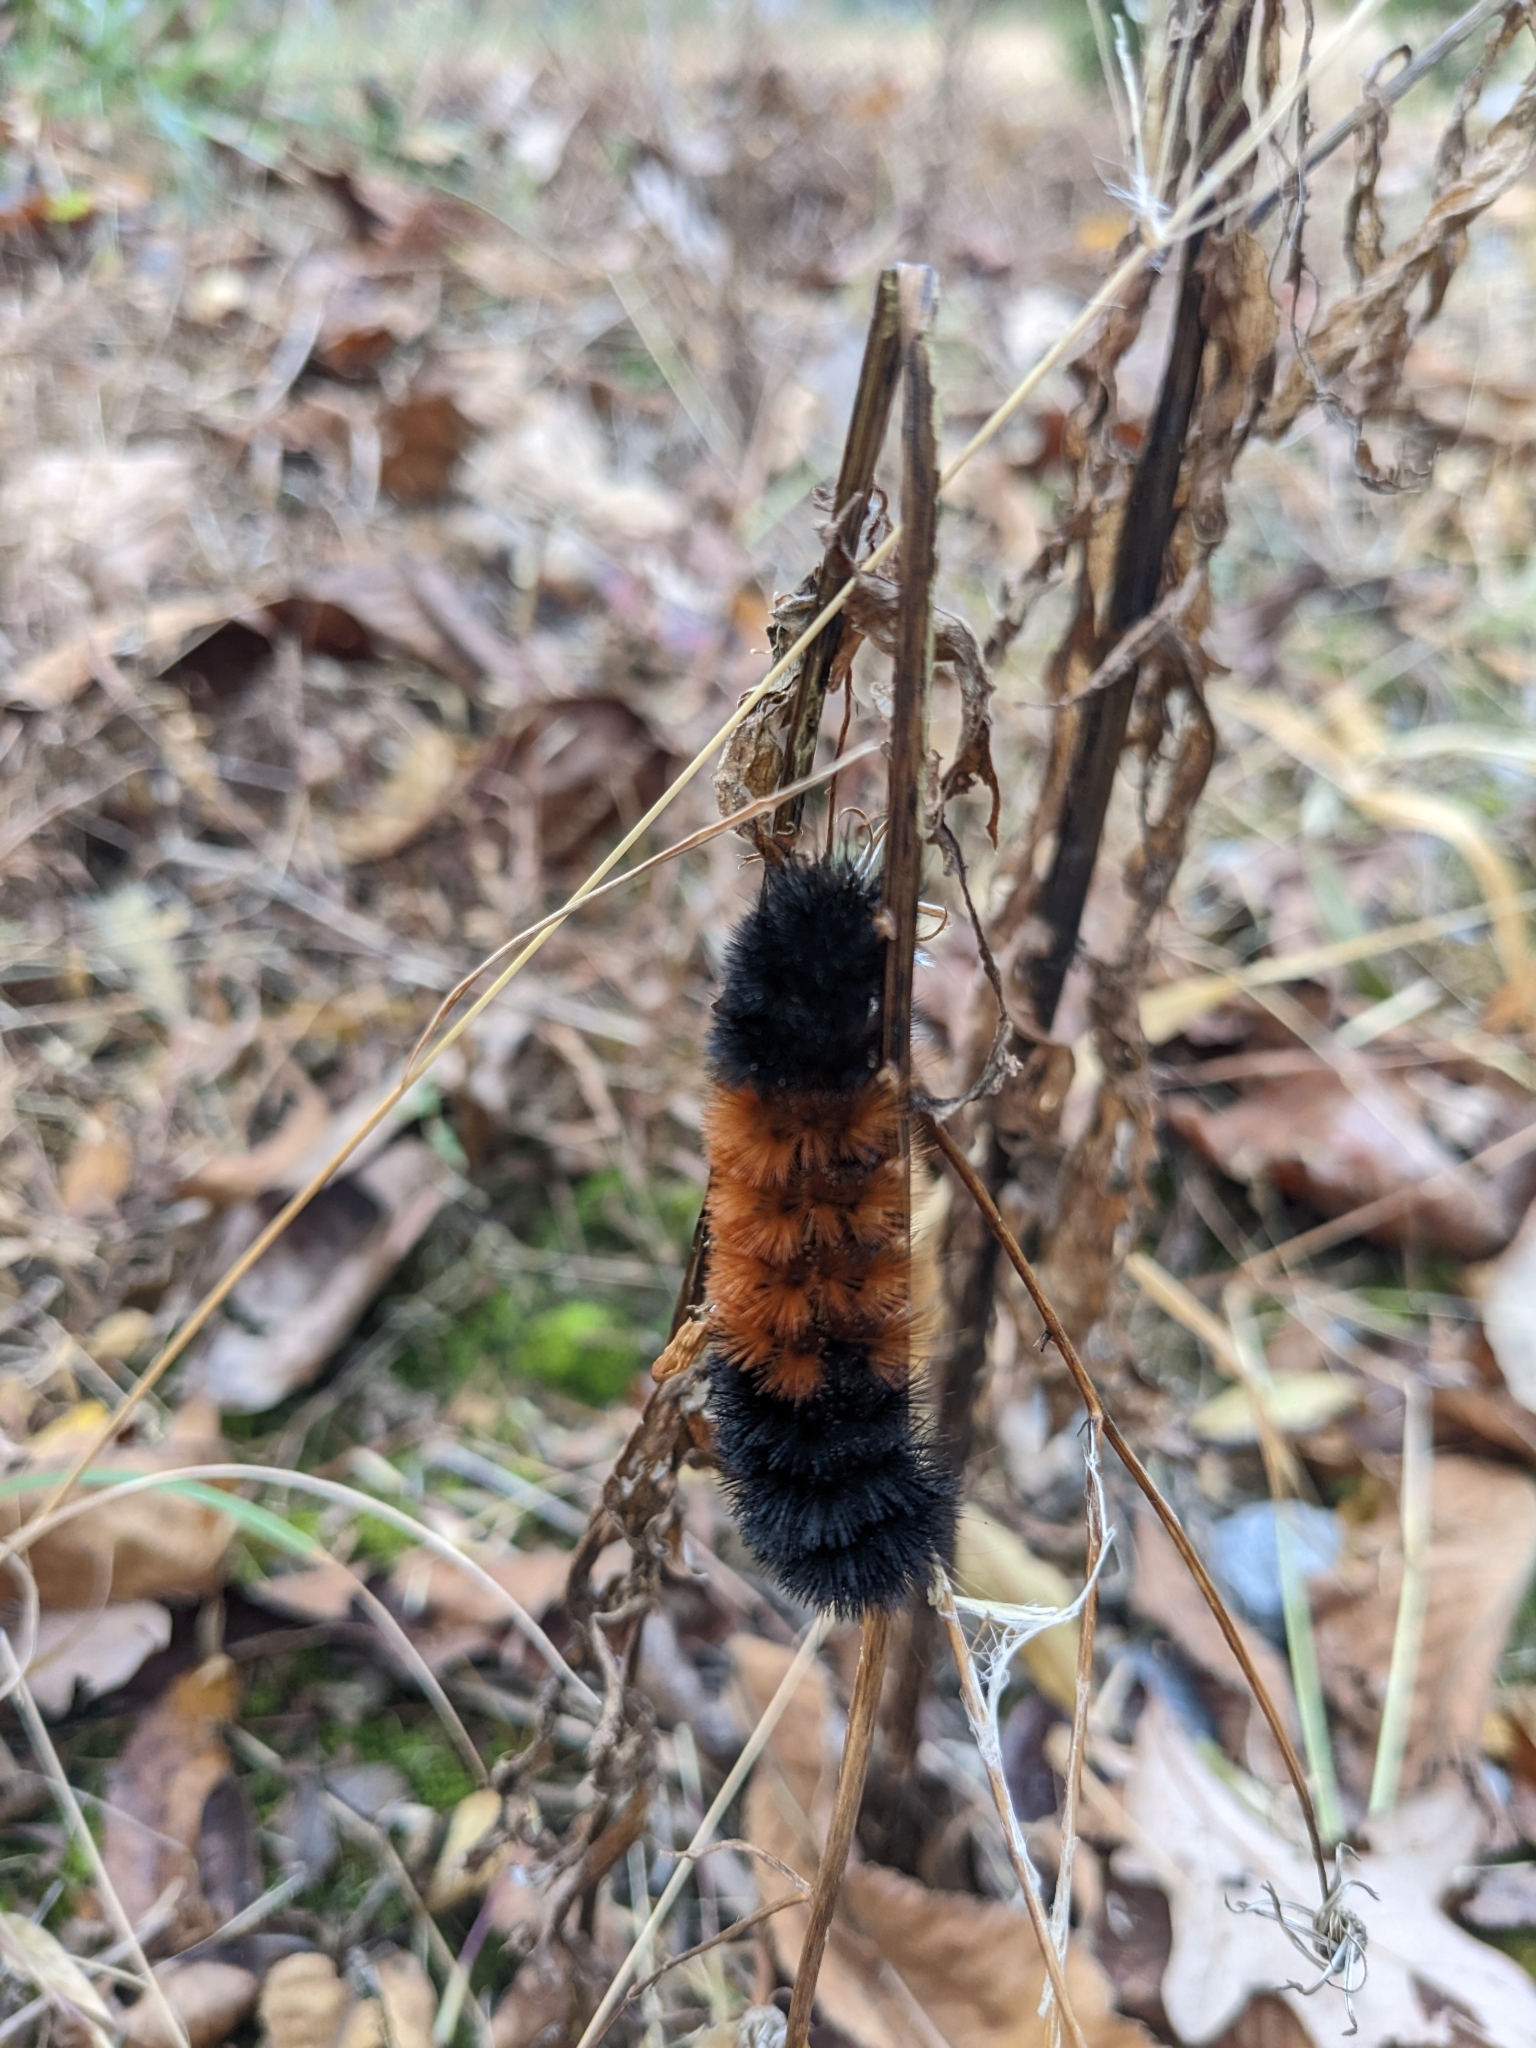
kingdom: Animalia
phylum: Arthropoda
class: Insecta
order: Lepidoptera
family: Erebidae
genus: Pyrrharctia
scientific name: Pyrrharctia isabella
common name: Isabella tiger moth
